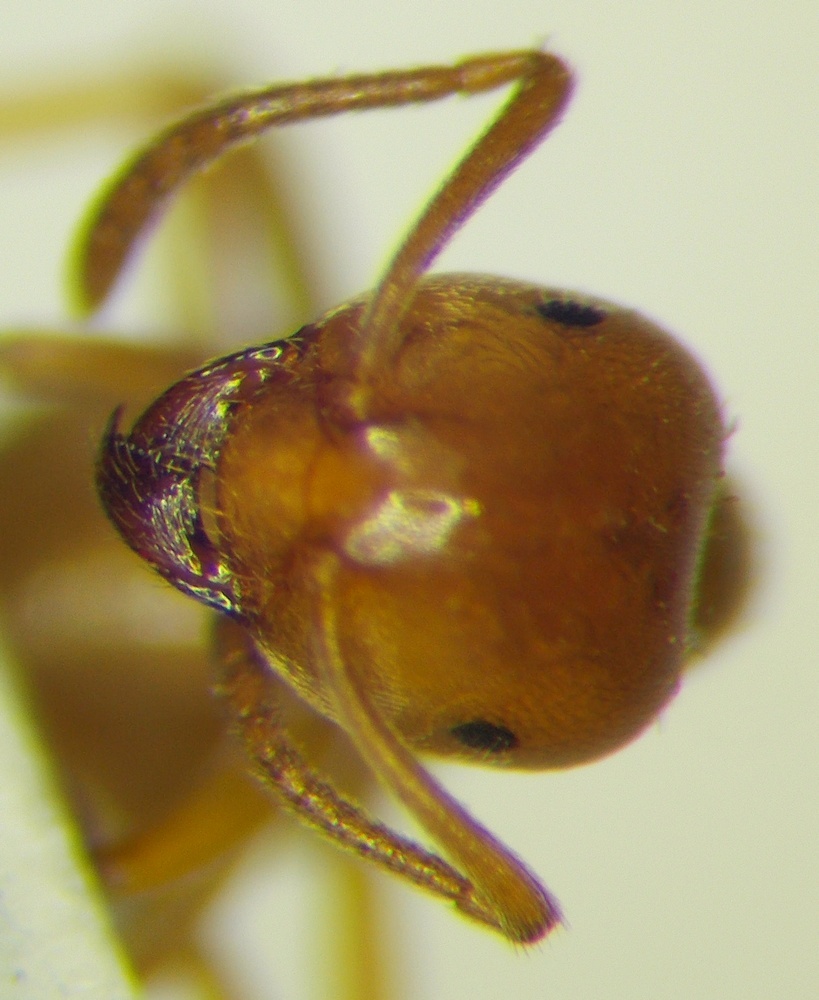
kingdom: Animalia
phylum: Arthropoda
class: Insecta
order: Hymenoptera
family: Formicidae
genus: Lasius
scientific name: Lasius carniolicus
